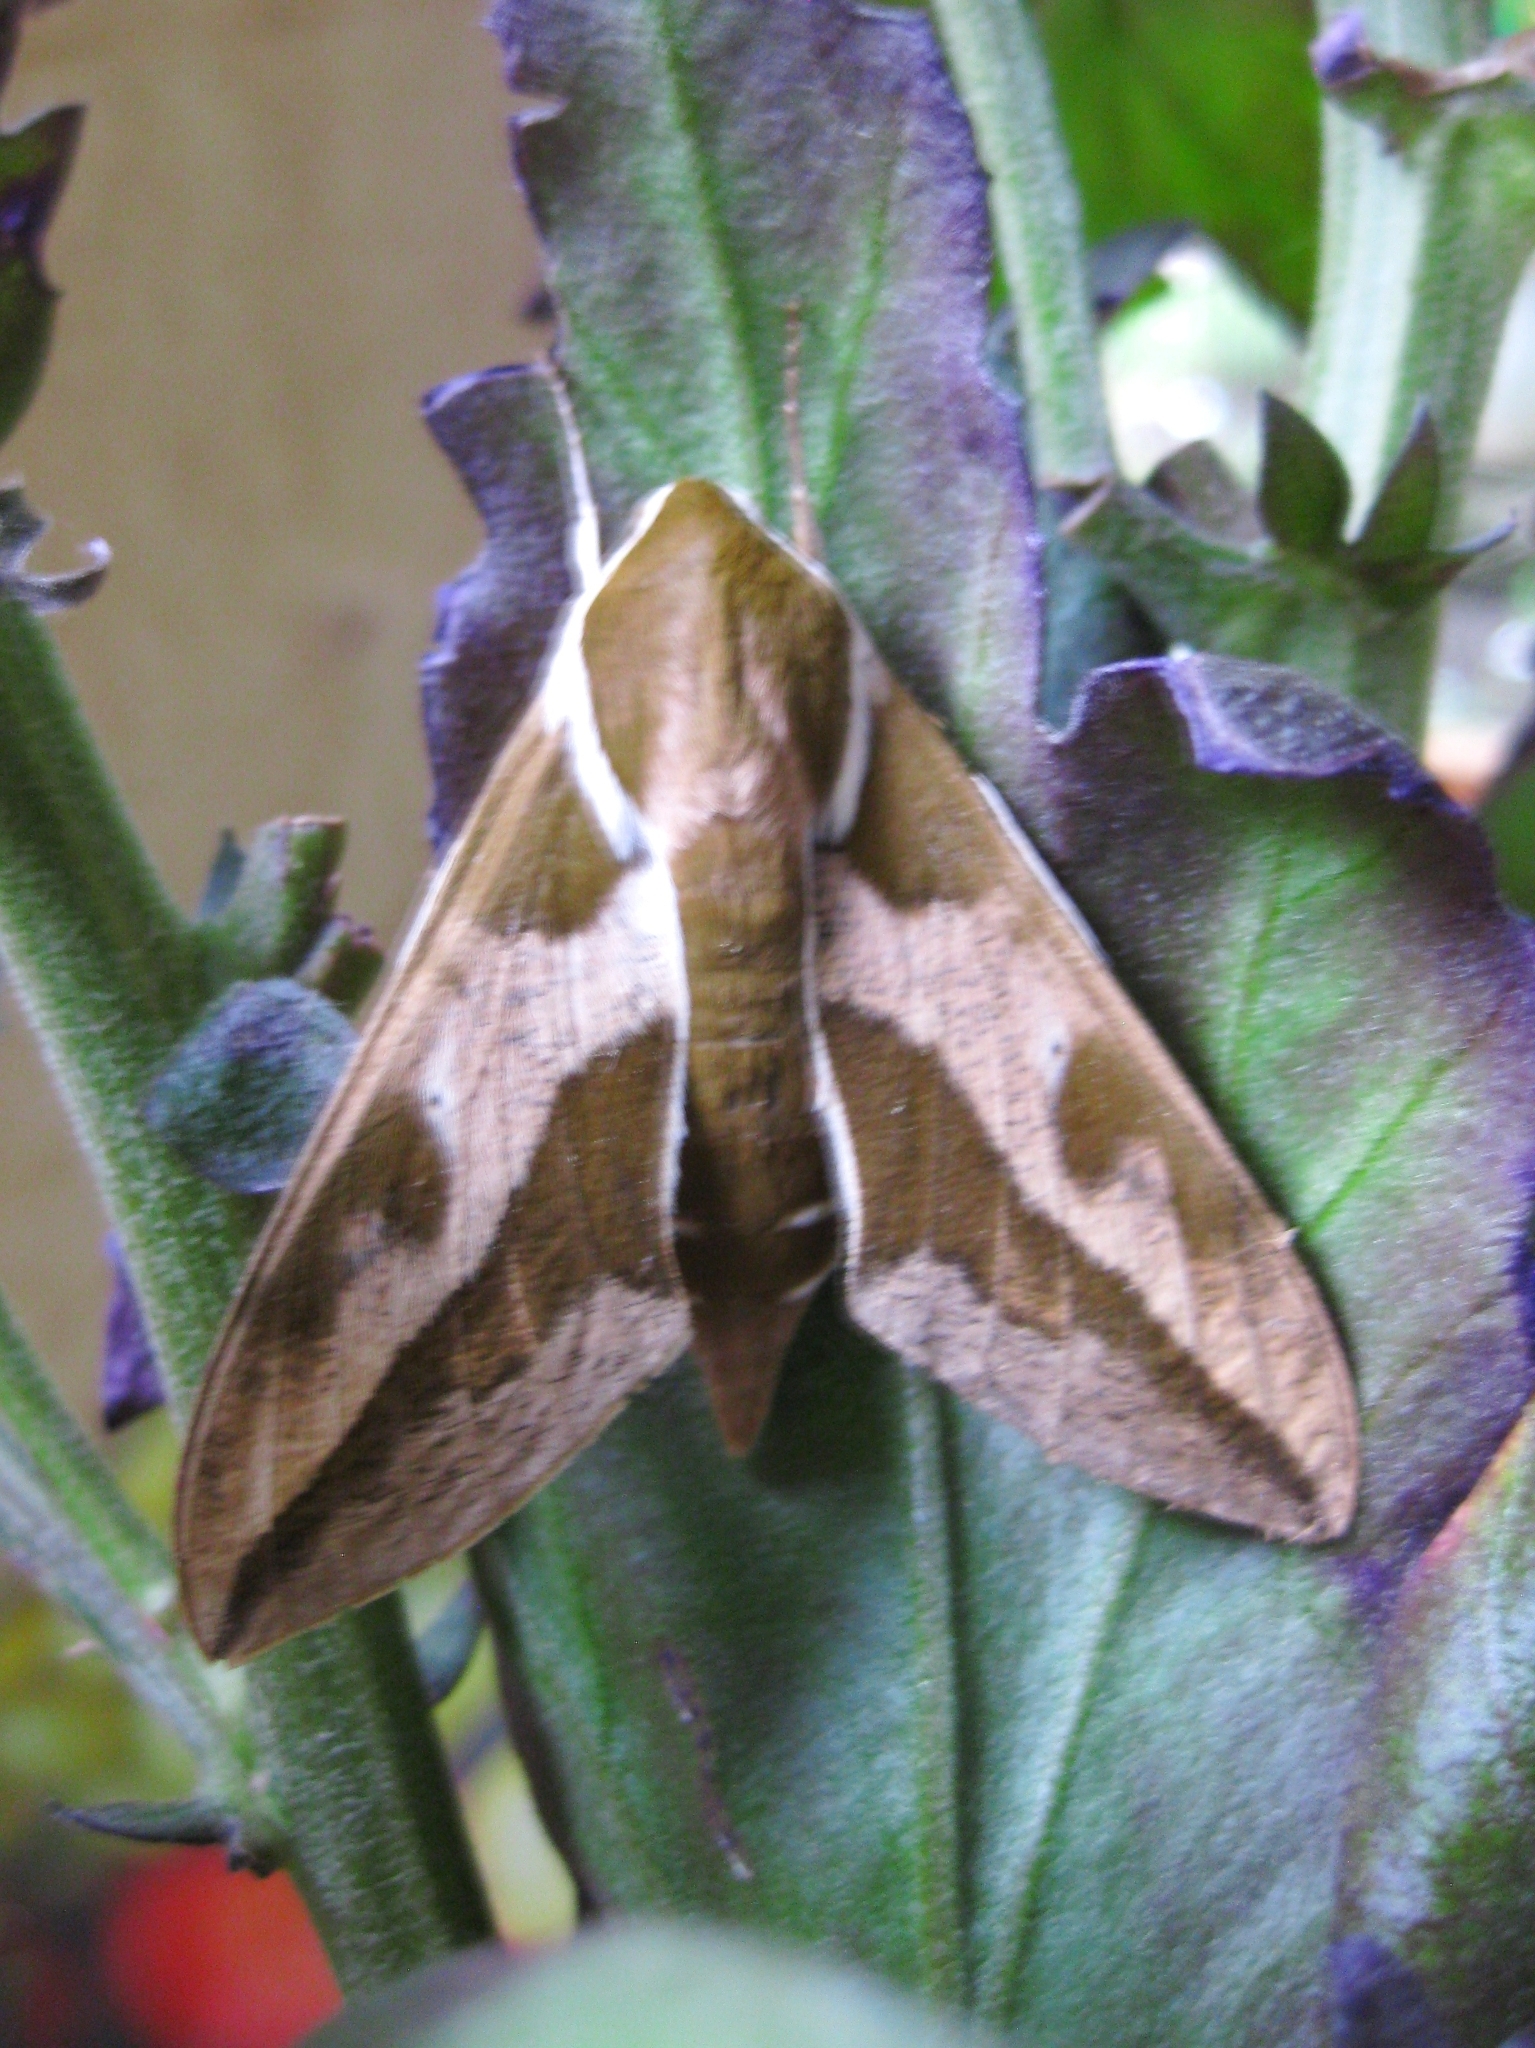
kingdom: Animalia
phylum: Arthropoda
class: Insecta
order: Lepidoptera
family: Sphingidae
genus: Hyles
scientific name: Hyles euphorbiae
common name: Spurge hawk-moth
